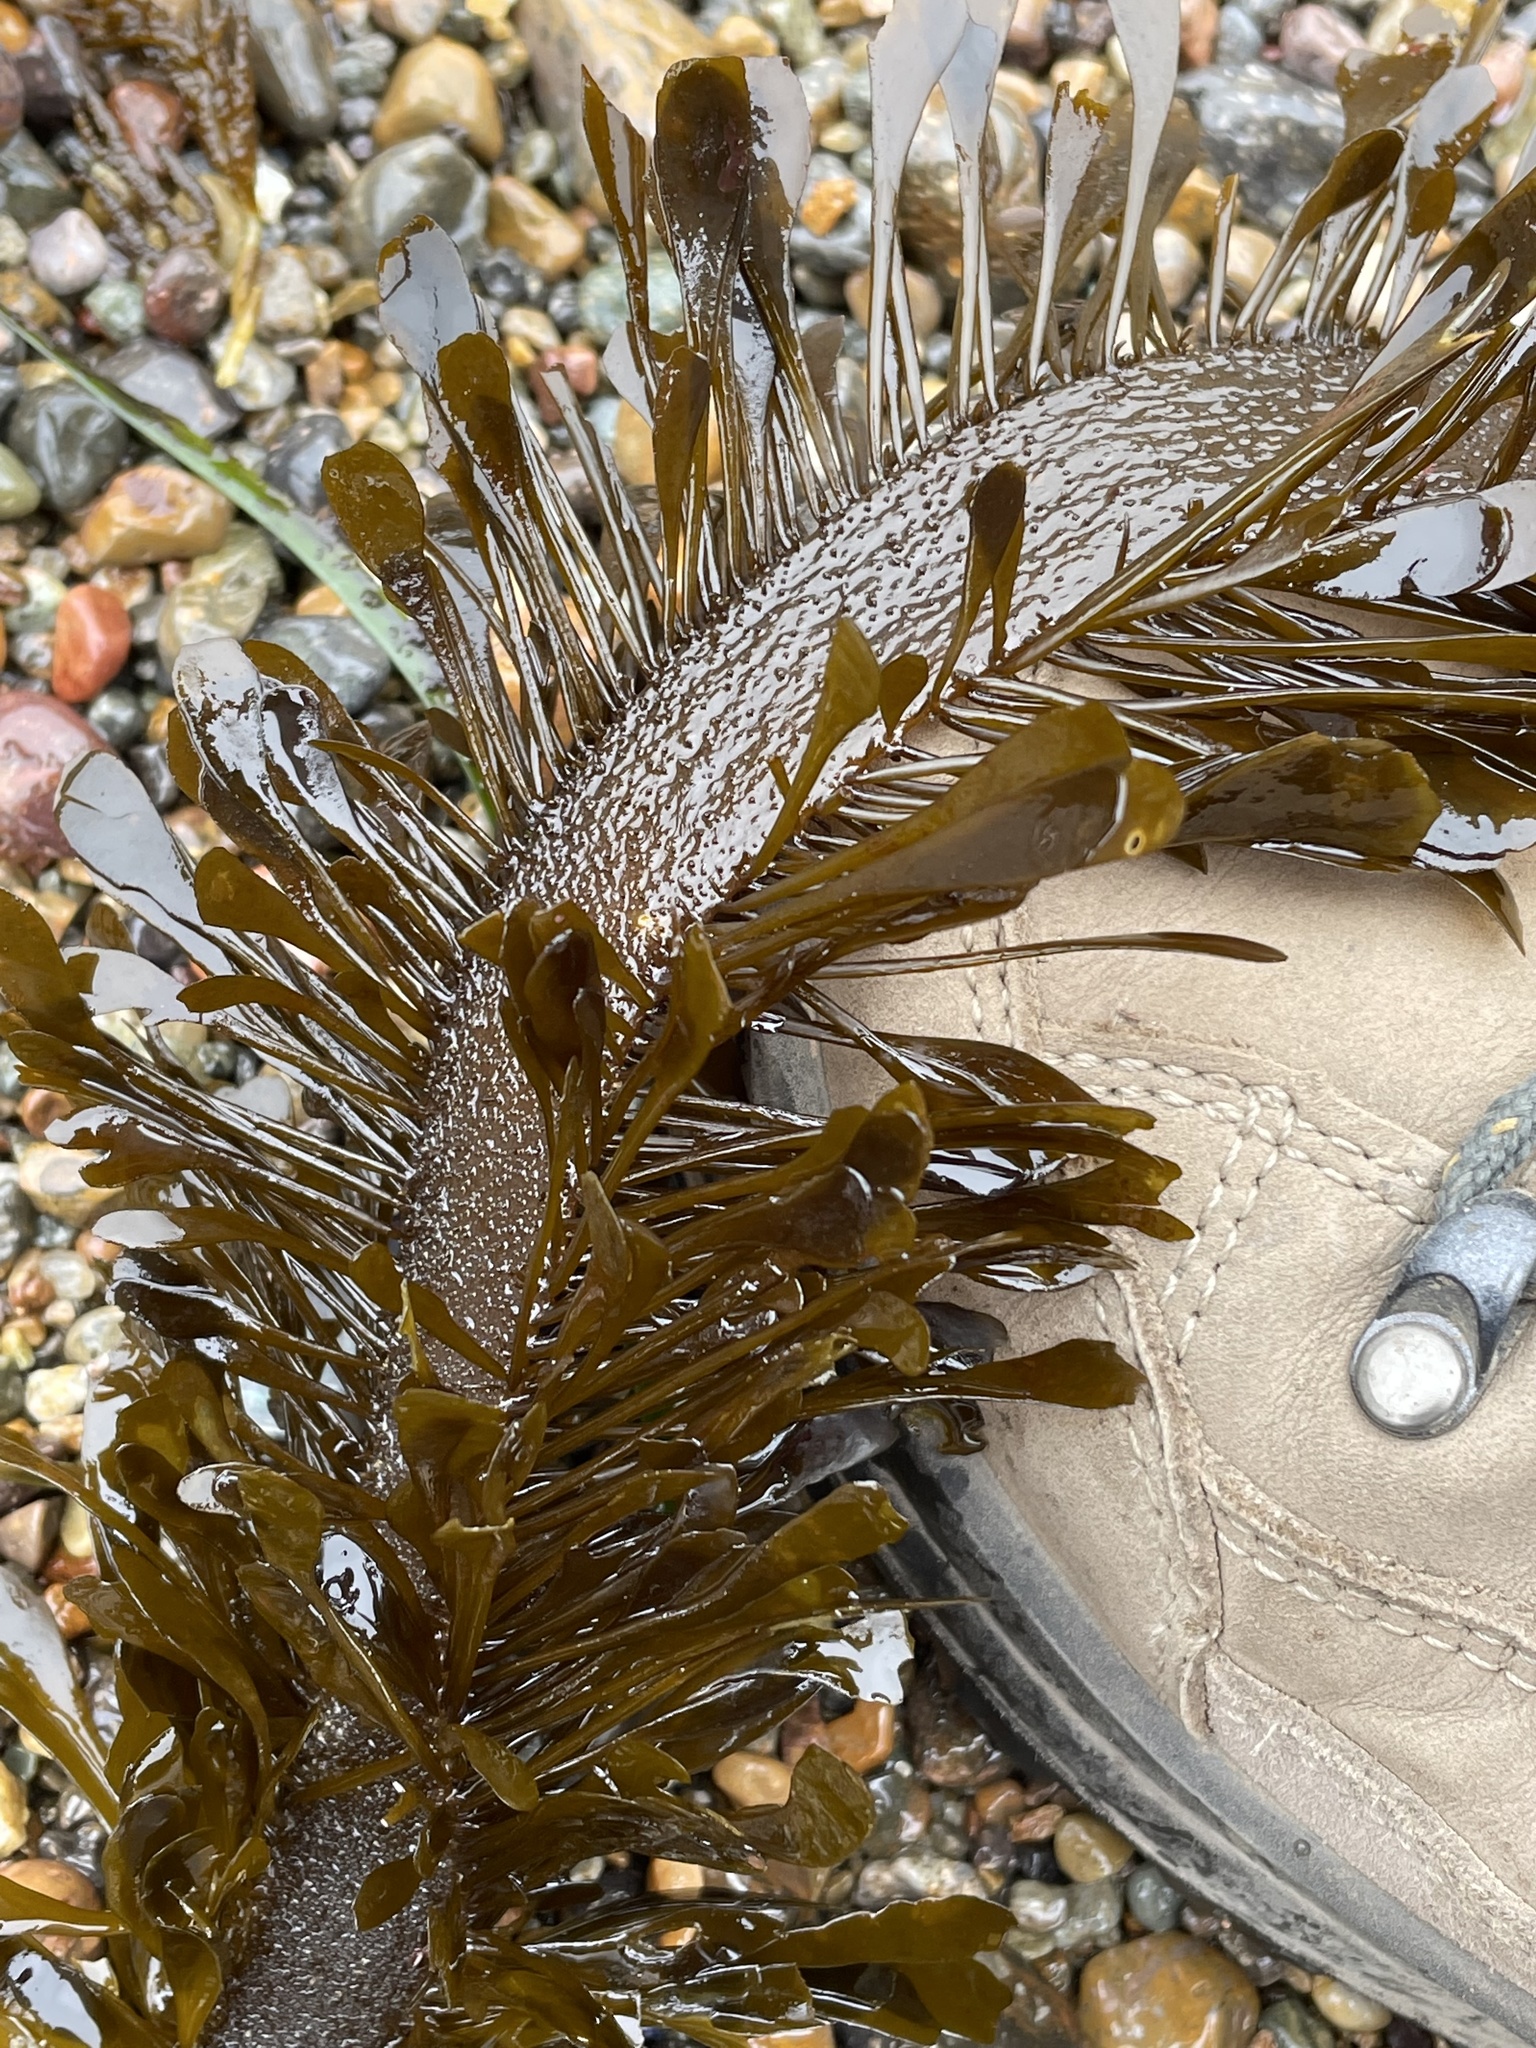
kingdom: Chromista
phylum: Ochrophyta
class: Phaeophyceae
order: Laminariales
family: Lessoniaceae
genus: Egregia
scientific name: Egregia menziesii
